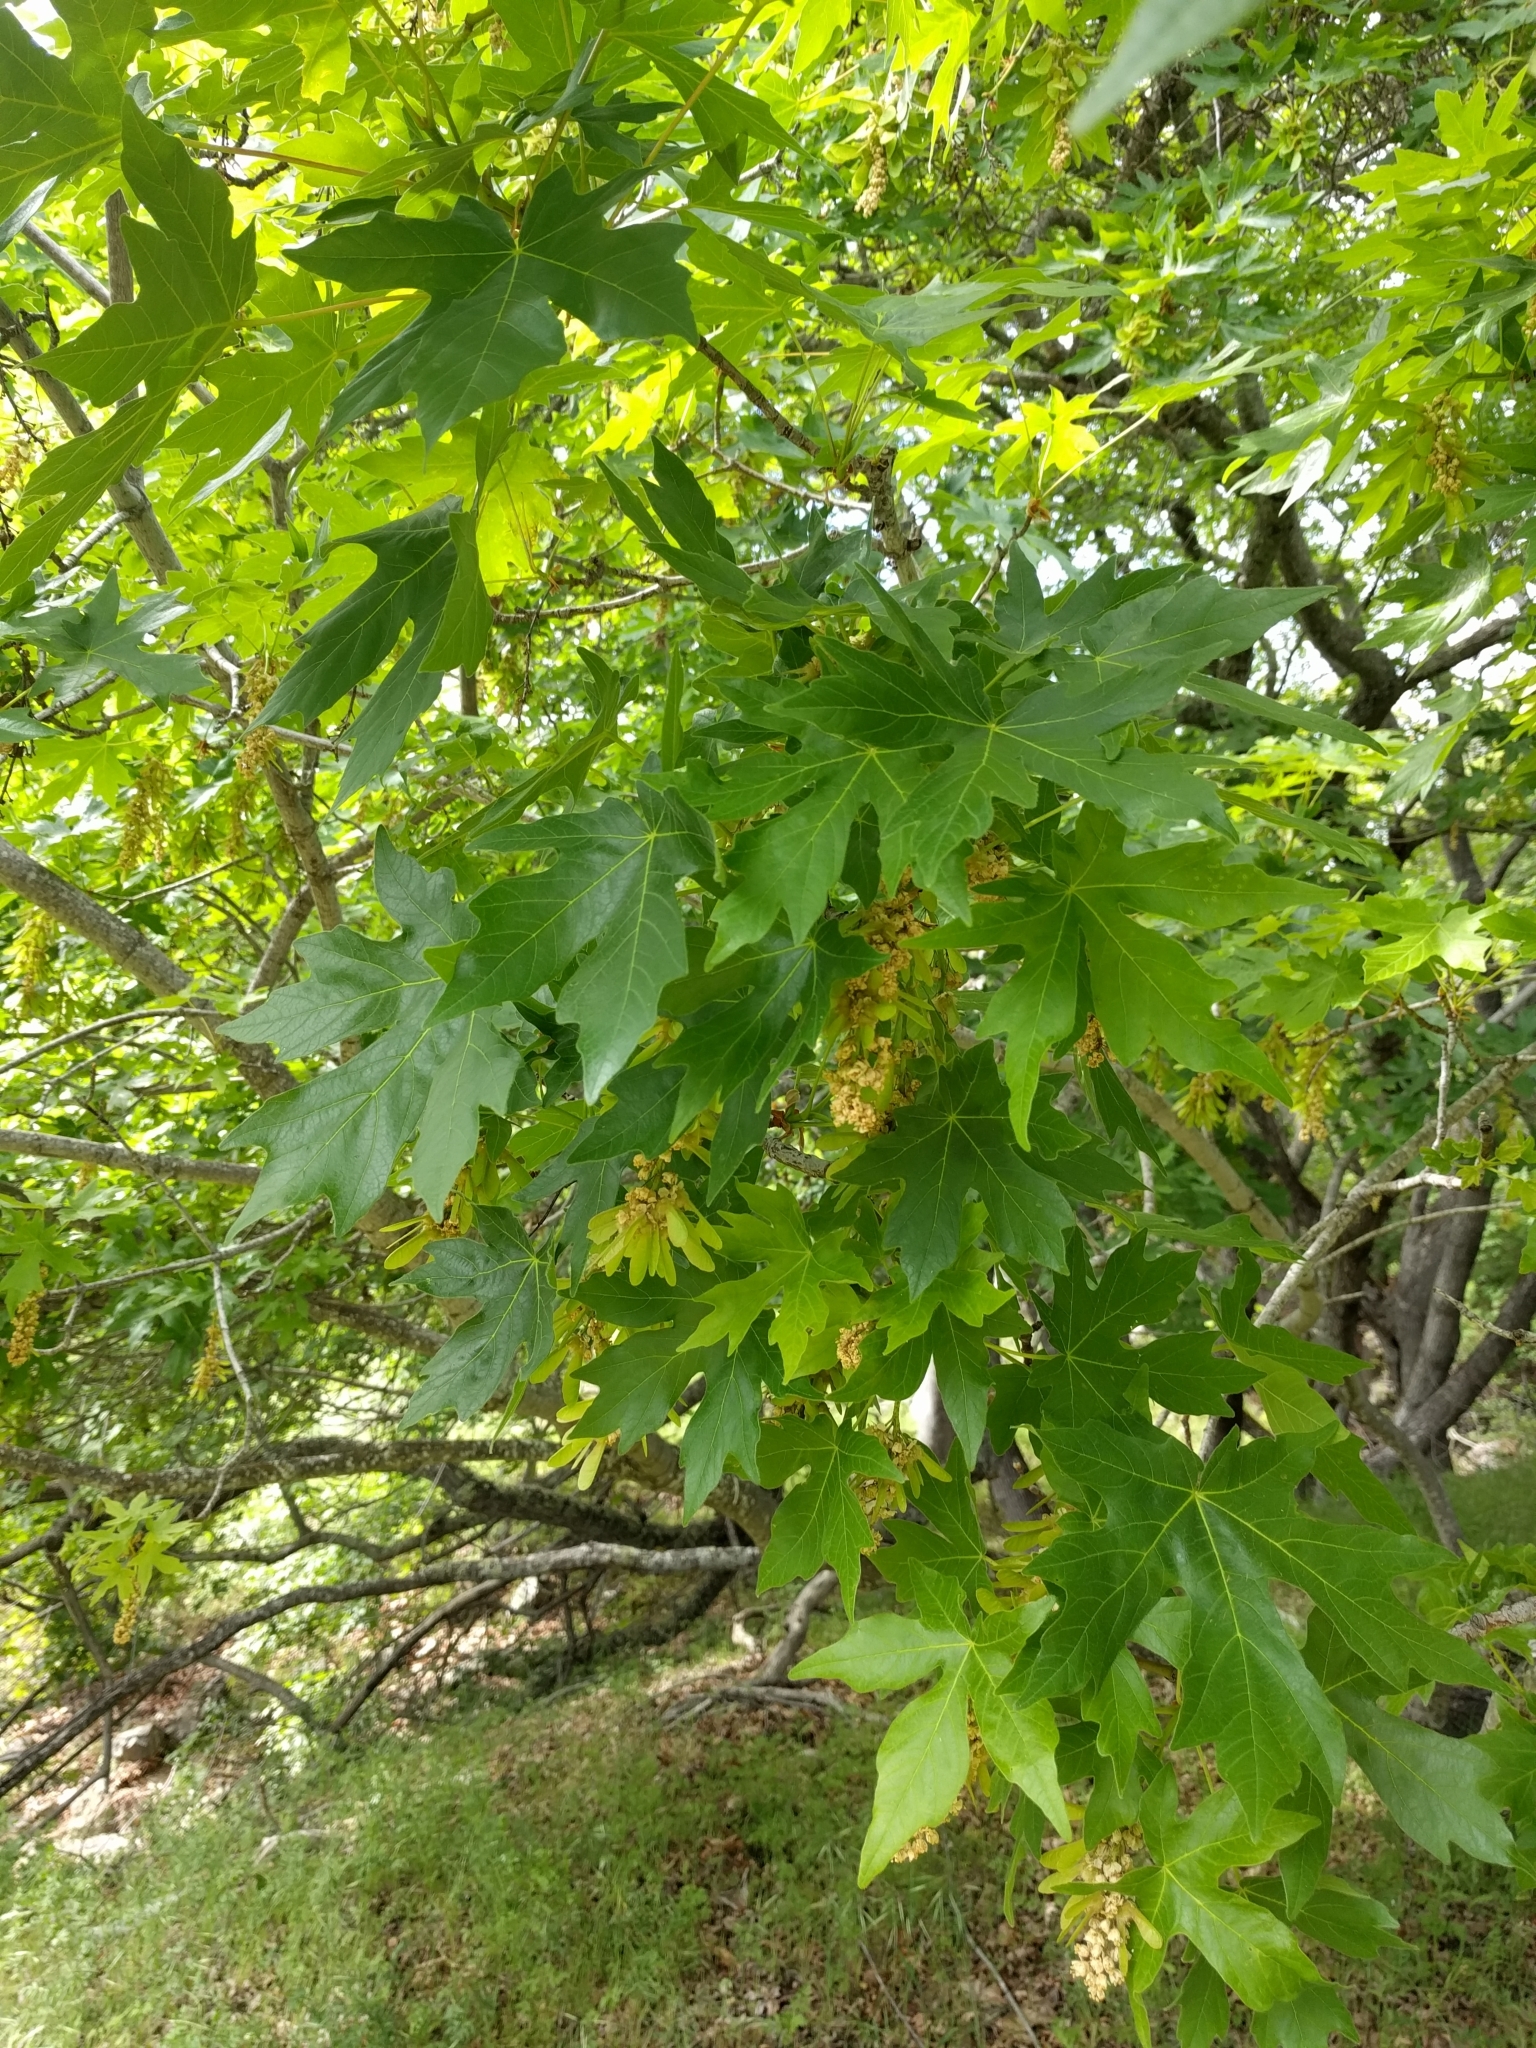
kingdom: Plantae
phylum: Tracheophyta
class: Magnoliopsida
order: Sapindales
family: Sapindaceae
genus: Acer
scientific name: Acer macrophyllum
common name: Oregon maple
